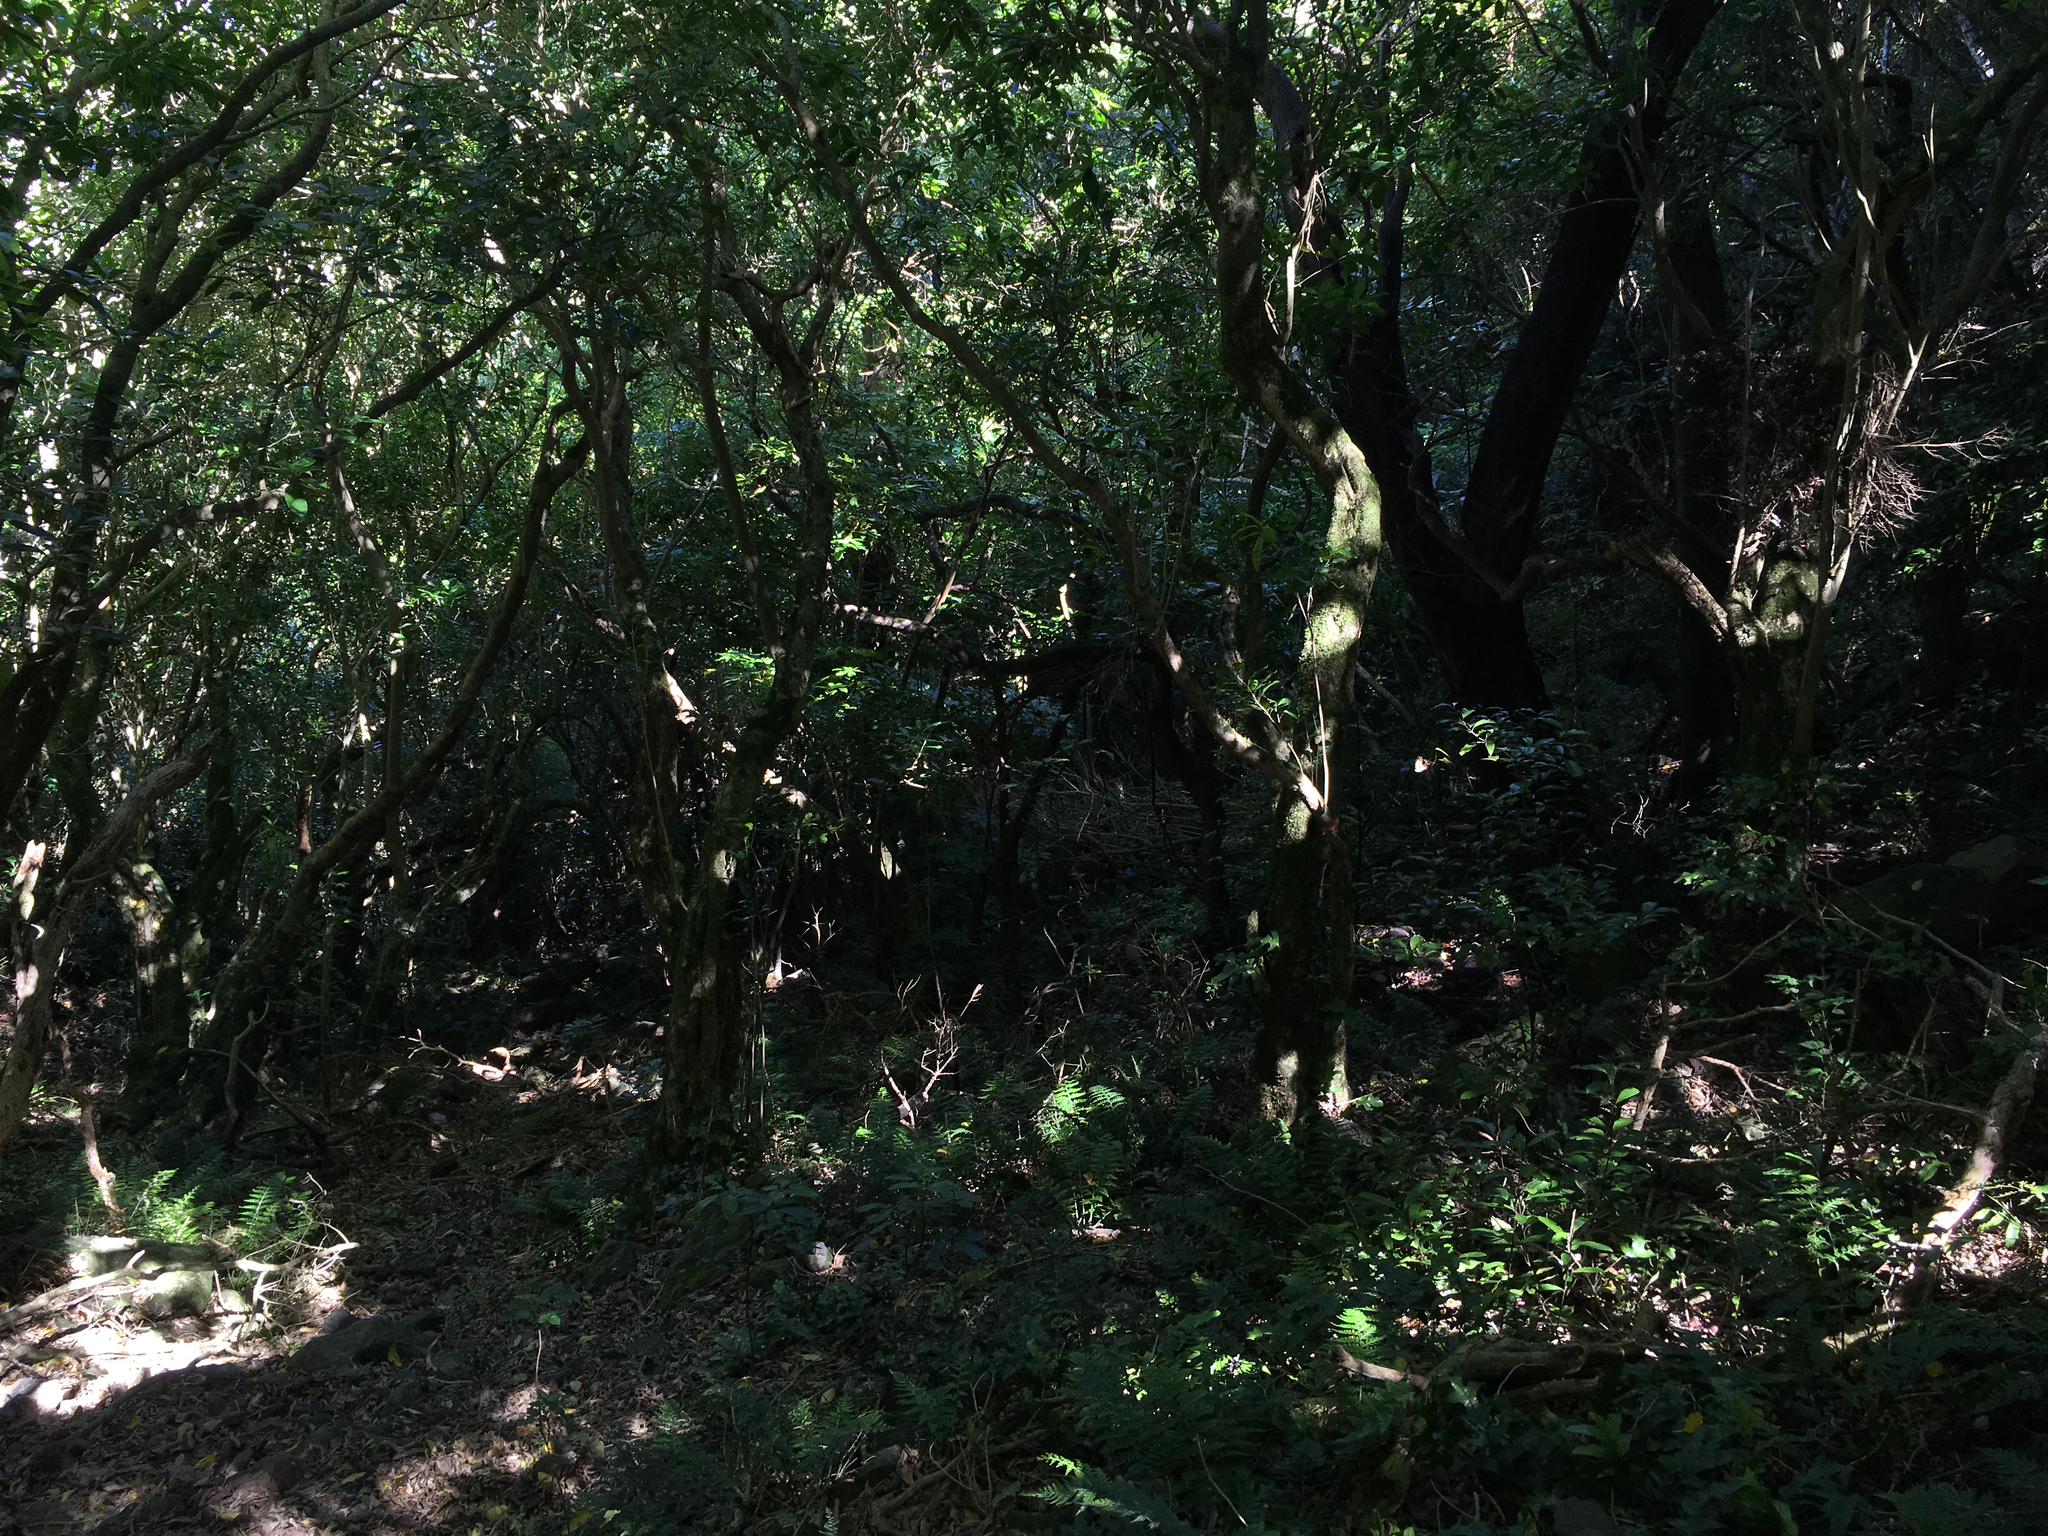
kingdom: Plantae
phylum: Tracheophyta
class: Magnoliopsida
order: Malpighiales
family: Violaceae
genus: Melicytus
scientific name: Melicytus ramiflorus
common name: Mahoe
